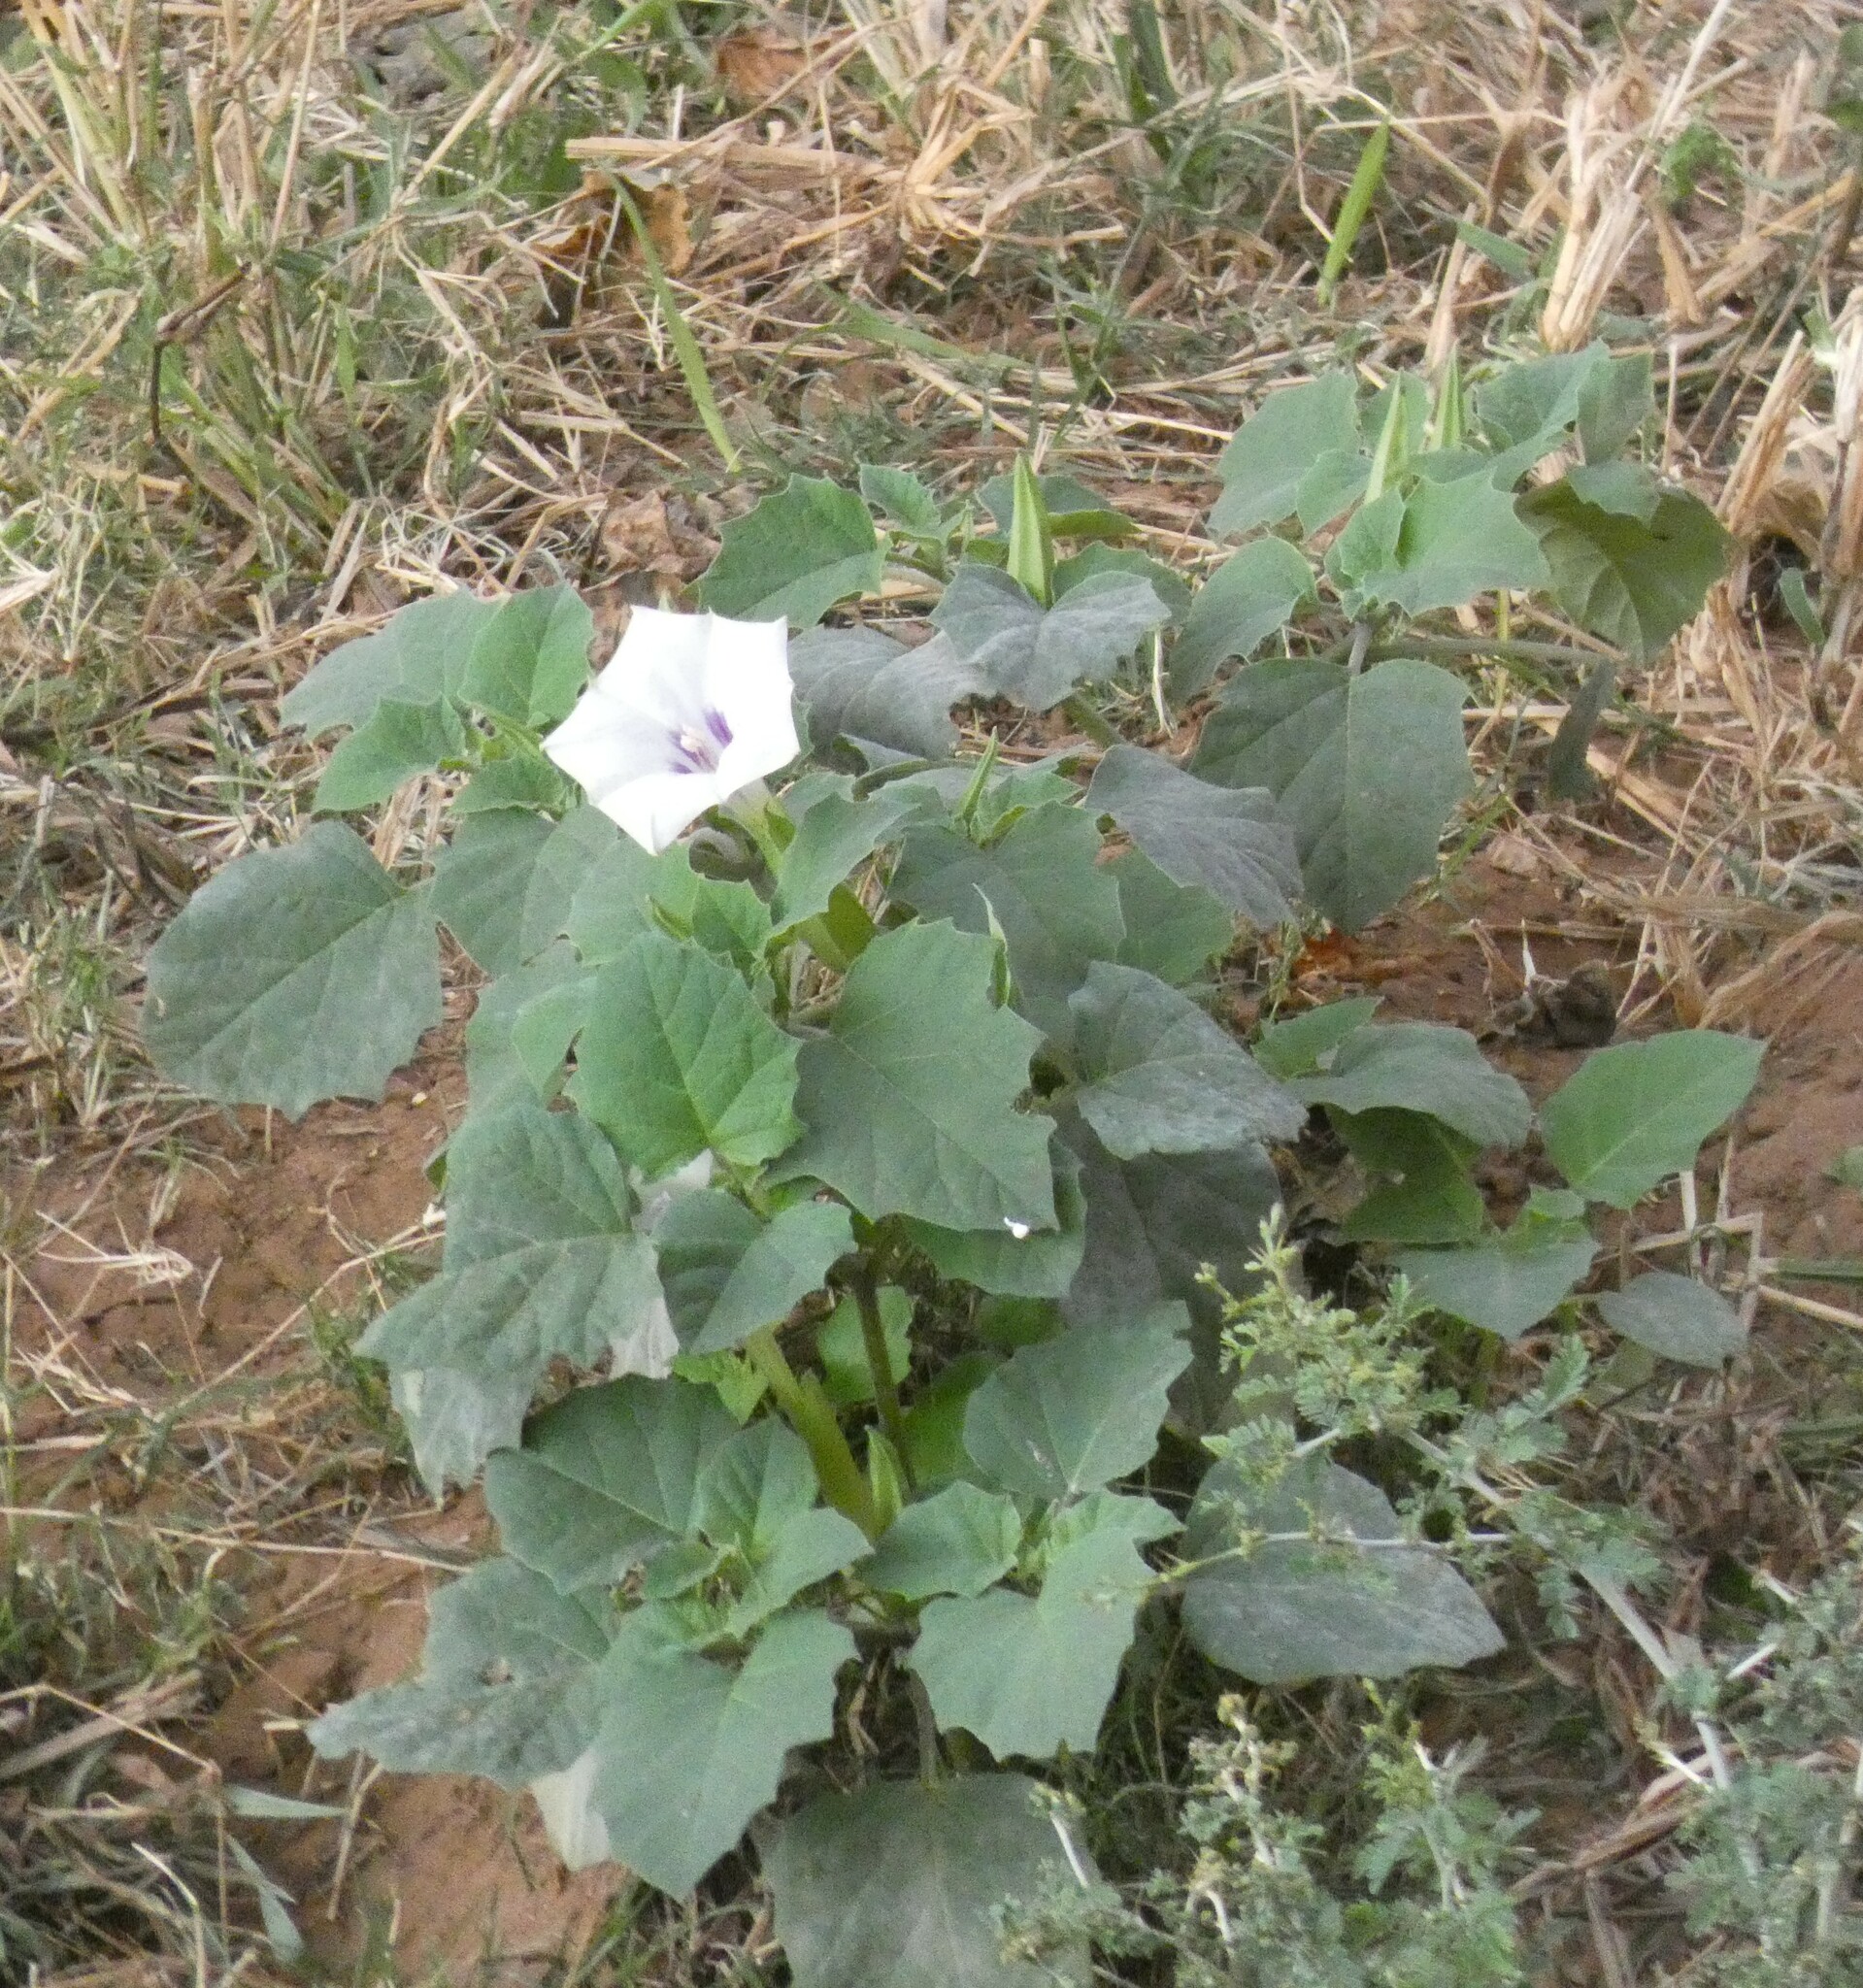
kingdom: Plantae
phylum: Tracheophyta
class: Magnoliopsida
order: Solanales
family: Solanaceae
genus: Datura
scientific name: Datura discolor
